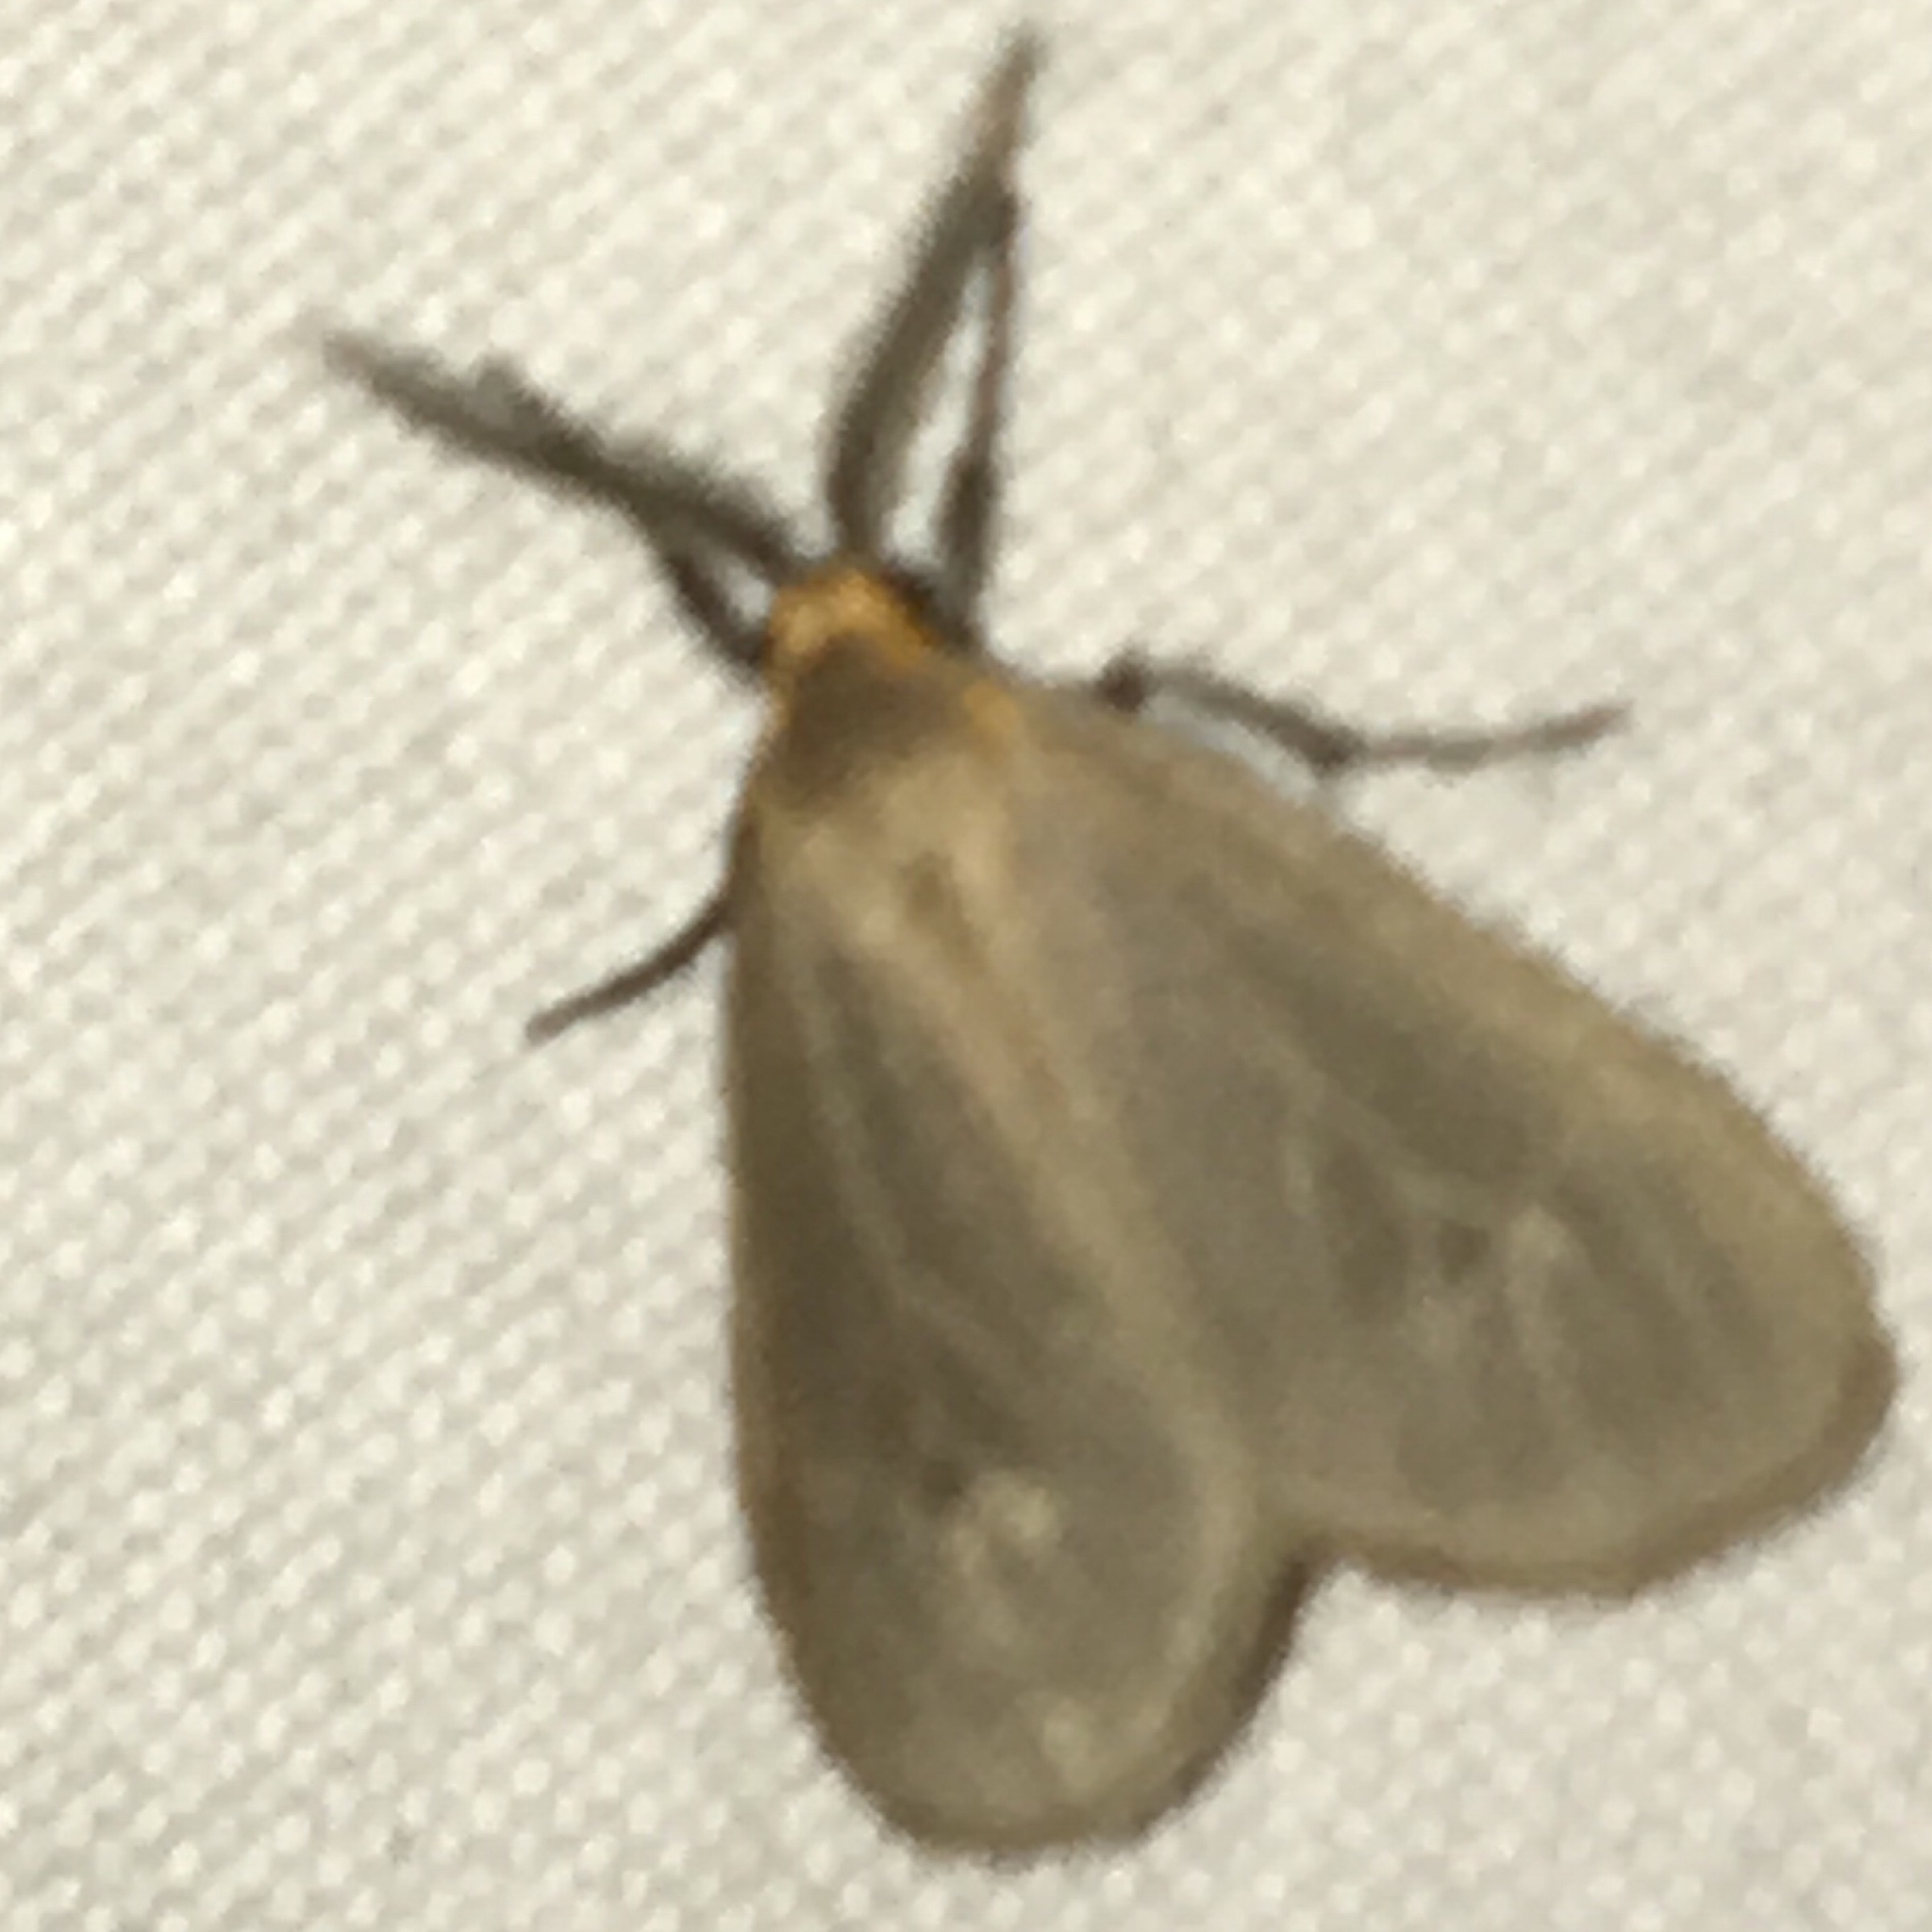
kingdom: Animalia
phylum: Arthropoda
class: Insecta
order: Lepidoptera
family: Erebidae
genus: Pagara
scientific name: Pagara simplex
